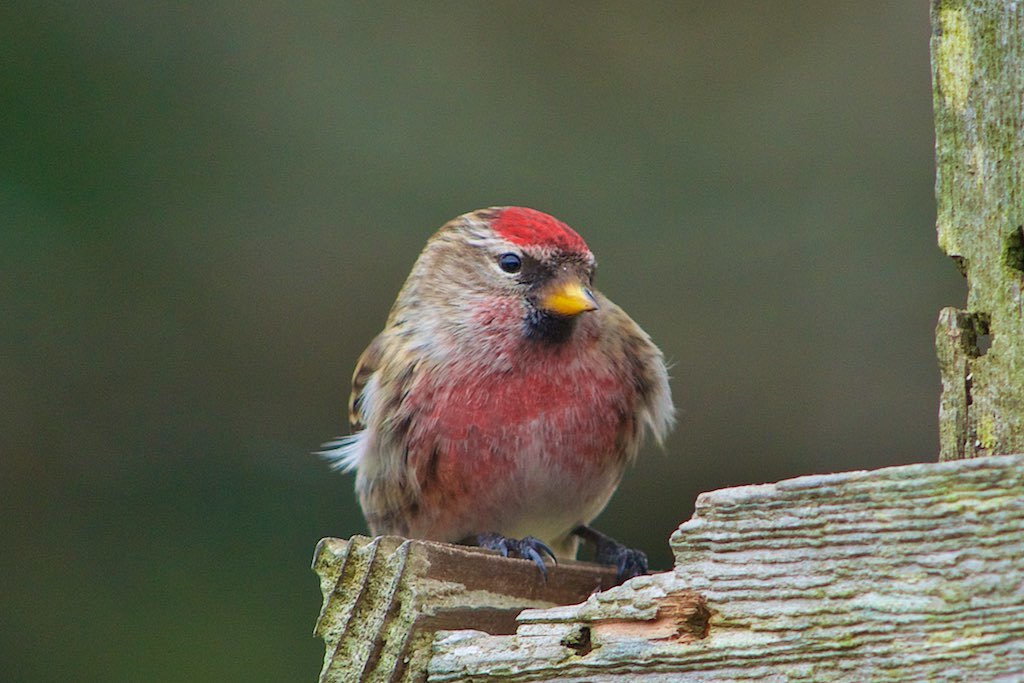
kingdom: Animalia
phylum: Chordata
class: Aves
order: Passeriformes
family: Fringillidae
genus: Acanthis
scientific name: Acanthis flammea
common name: Common redpoll
